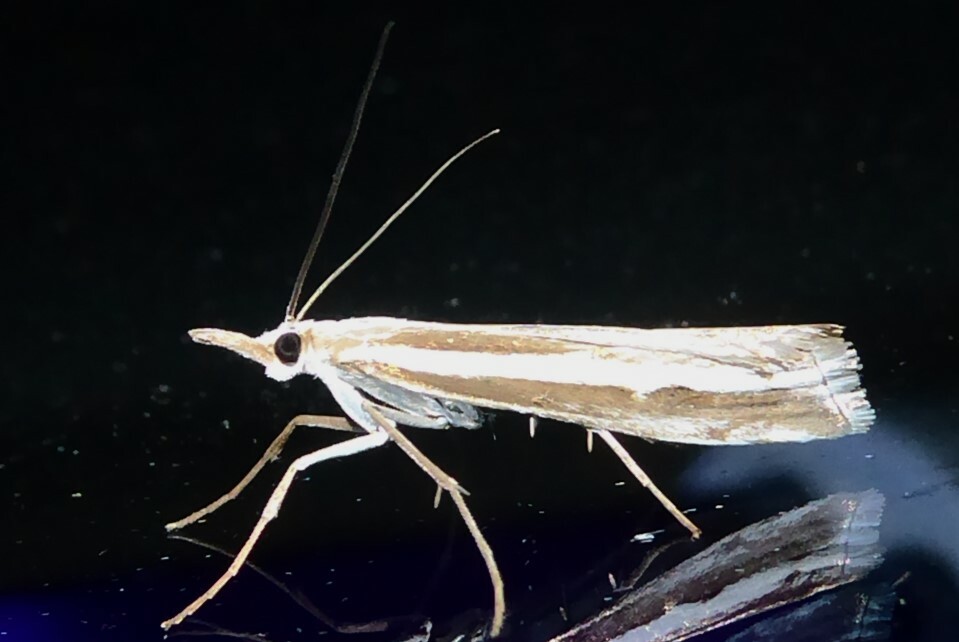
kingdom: Animalia
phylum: Arthropoda
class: Insecta
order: Lepidoptera
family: Crambidae
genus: Orocrambus
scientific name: Orocrambus vittellus
